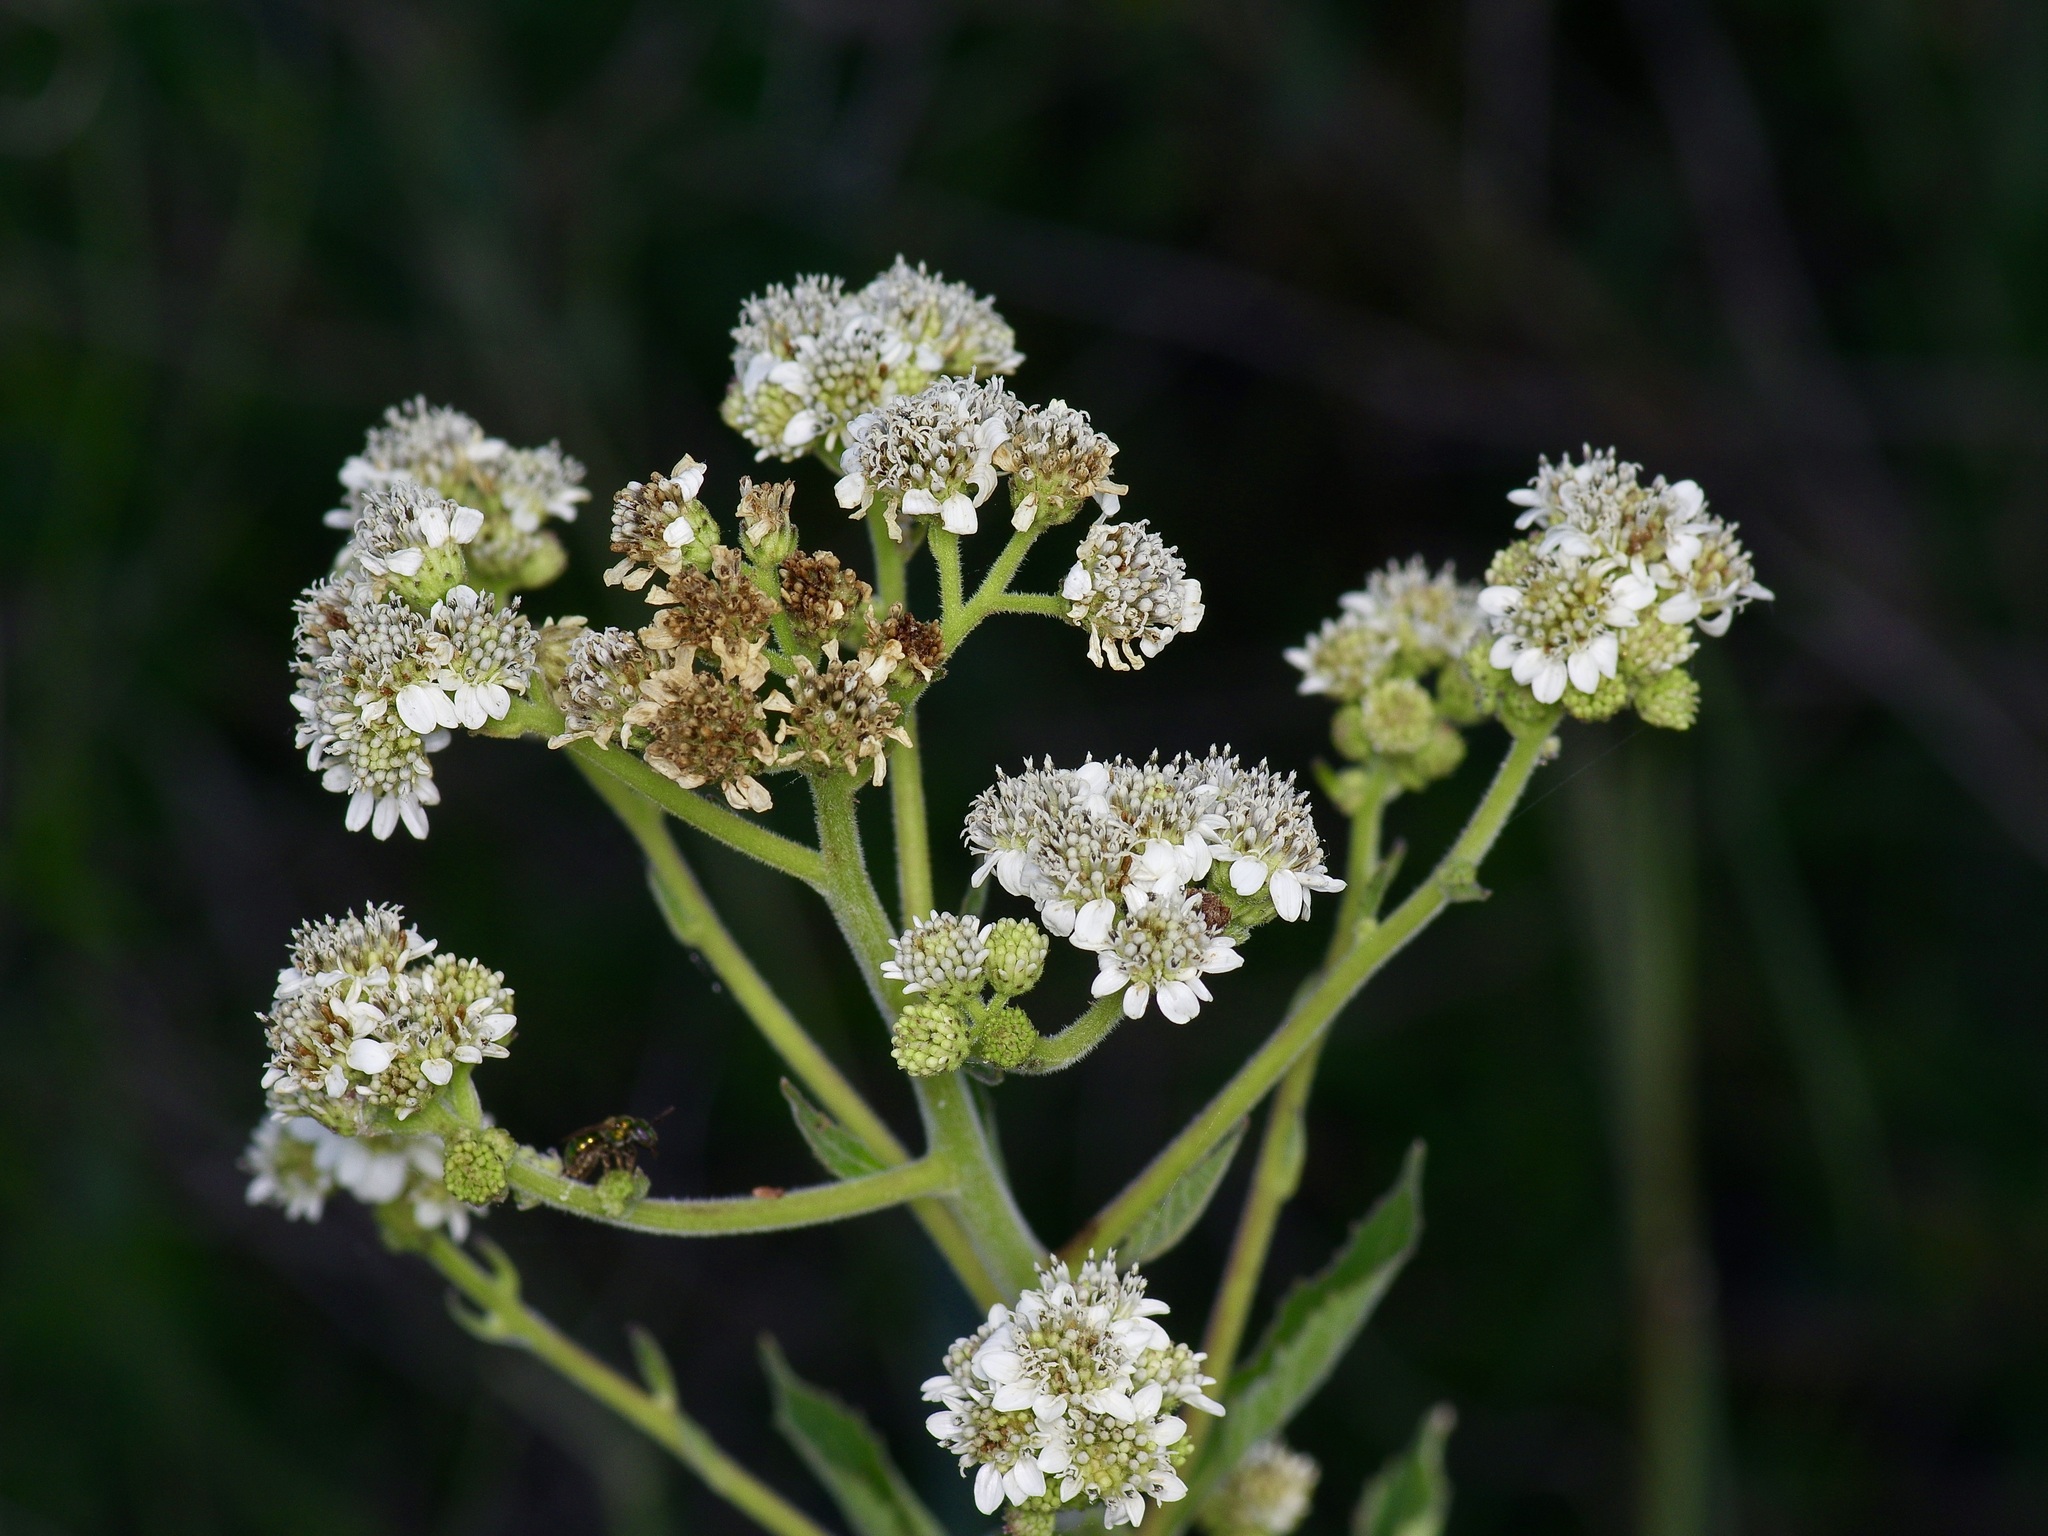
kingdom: Plantae
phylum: Tracheophyta
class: Magnoliopsida
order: Asterales
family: Asteraceae
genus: Verbesina
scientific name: Verbesina microptera
